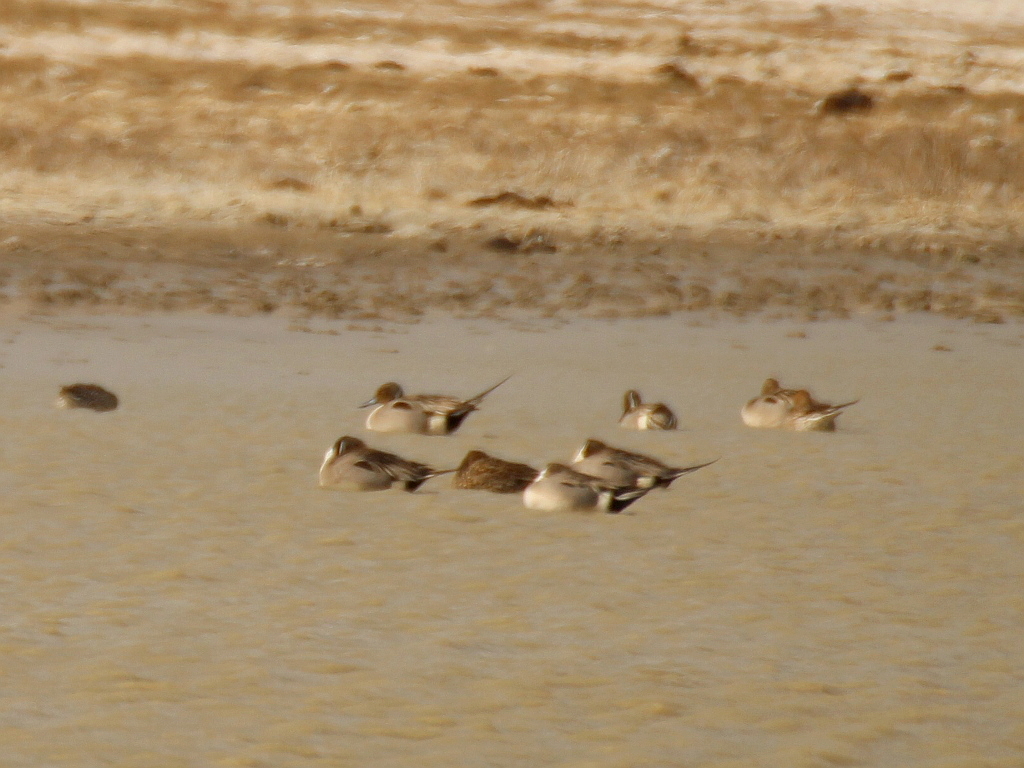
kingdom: Animalia
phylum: Chordata
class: Aves
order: Anseriformes
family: Anatidae
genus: Anas
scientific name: Anas acuta
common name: Northern pintail
